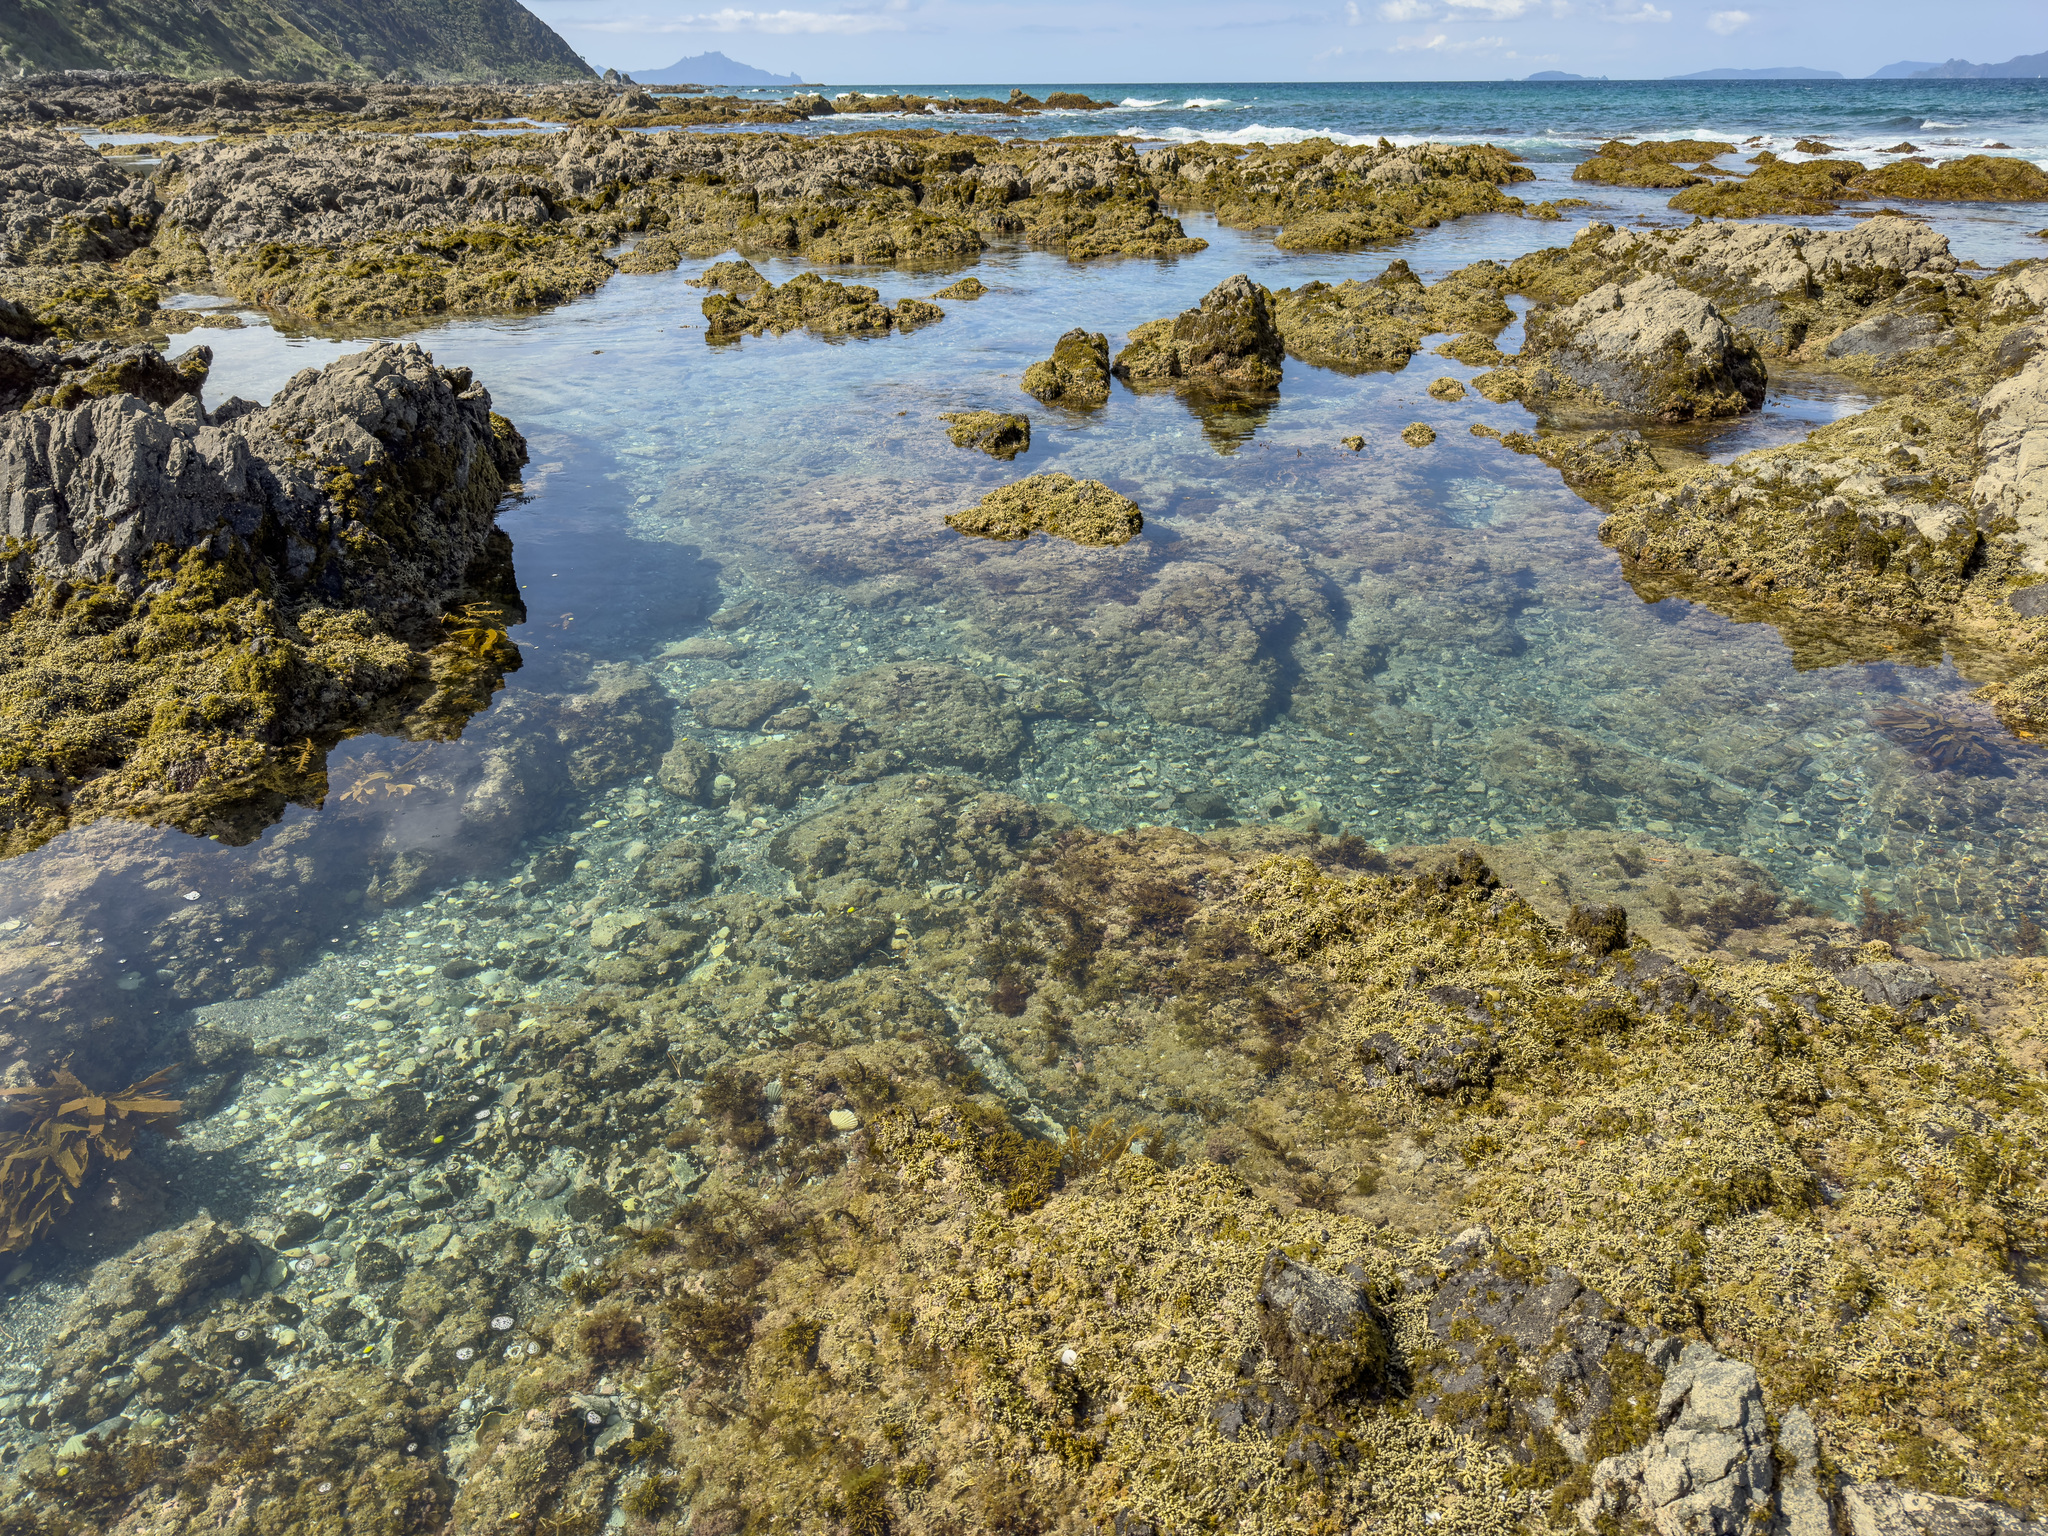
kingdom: Chromista
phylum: Ochrophyta
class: Phaeophyceae
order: Fucales
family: Hormosiraceae
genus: Hormosira
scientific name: Hormosira banksii
